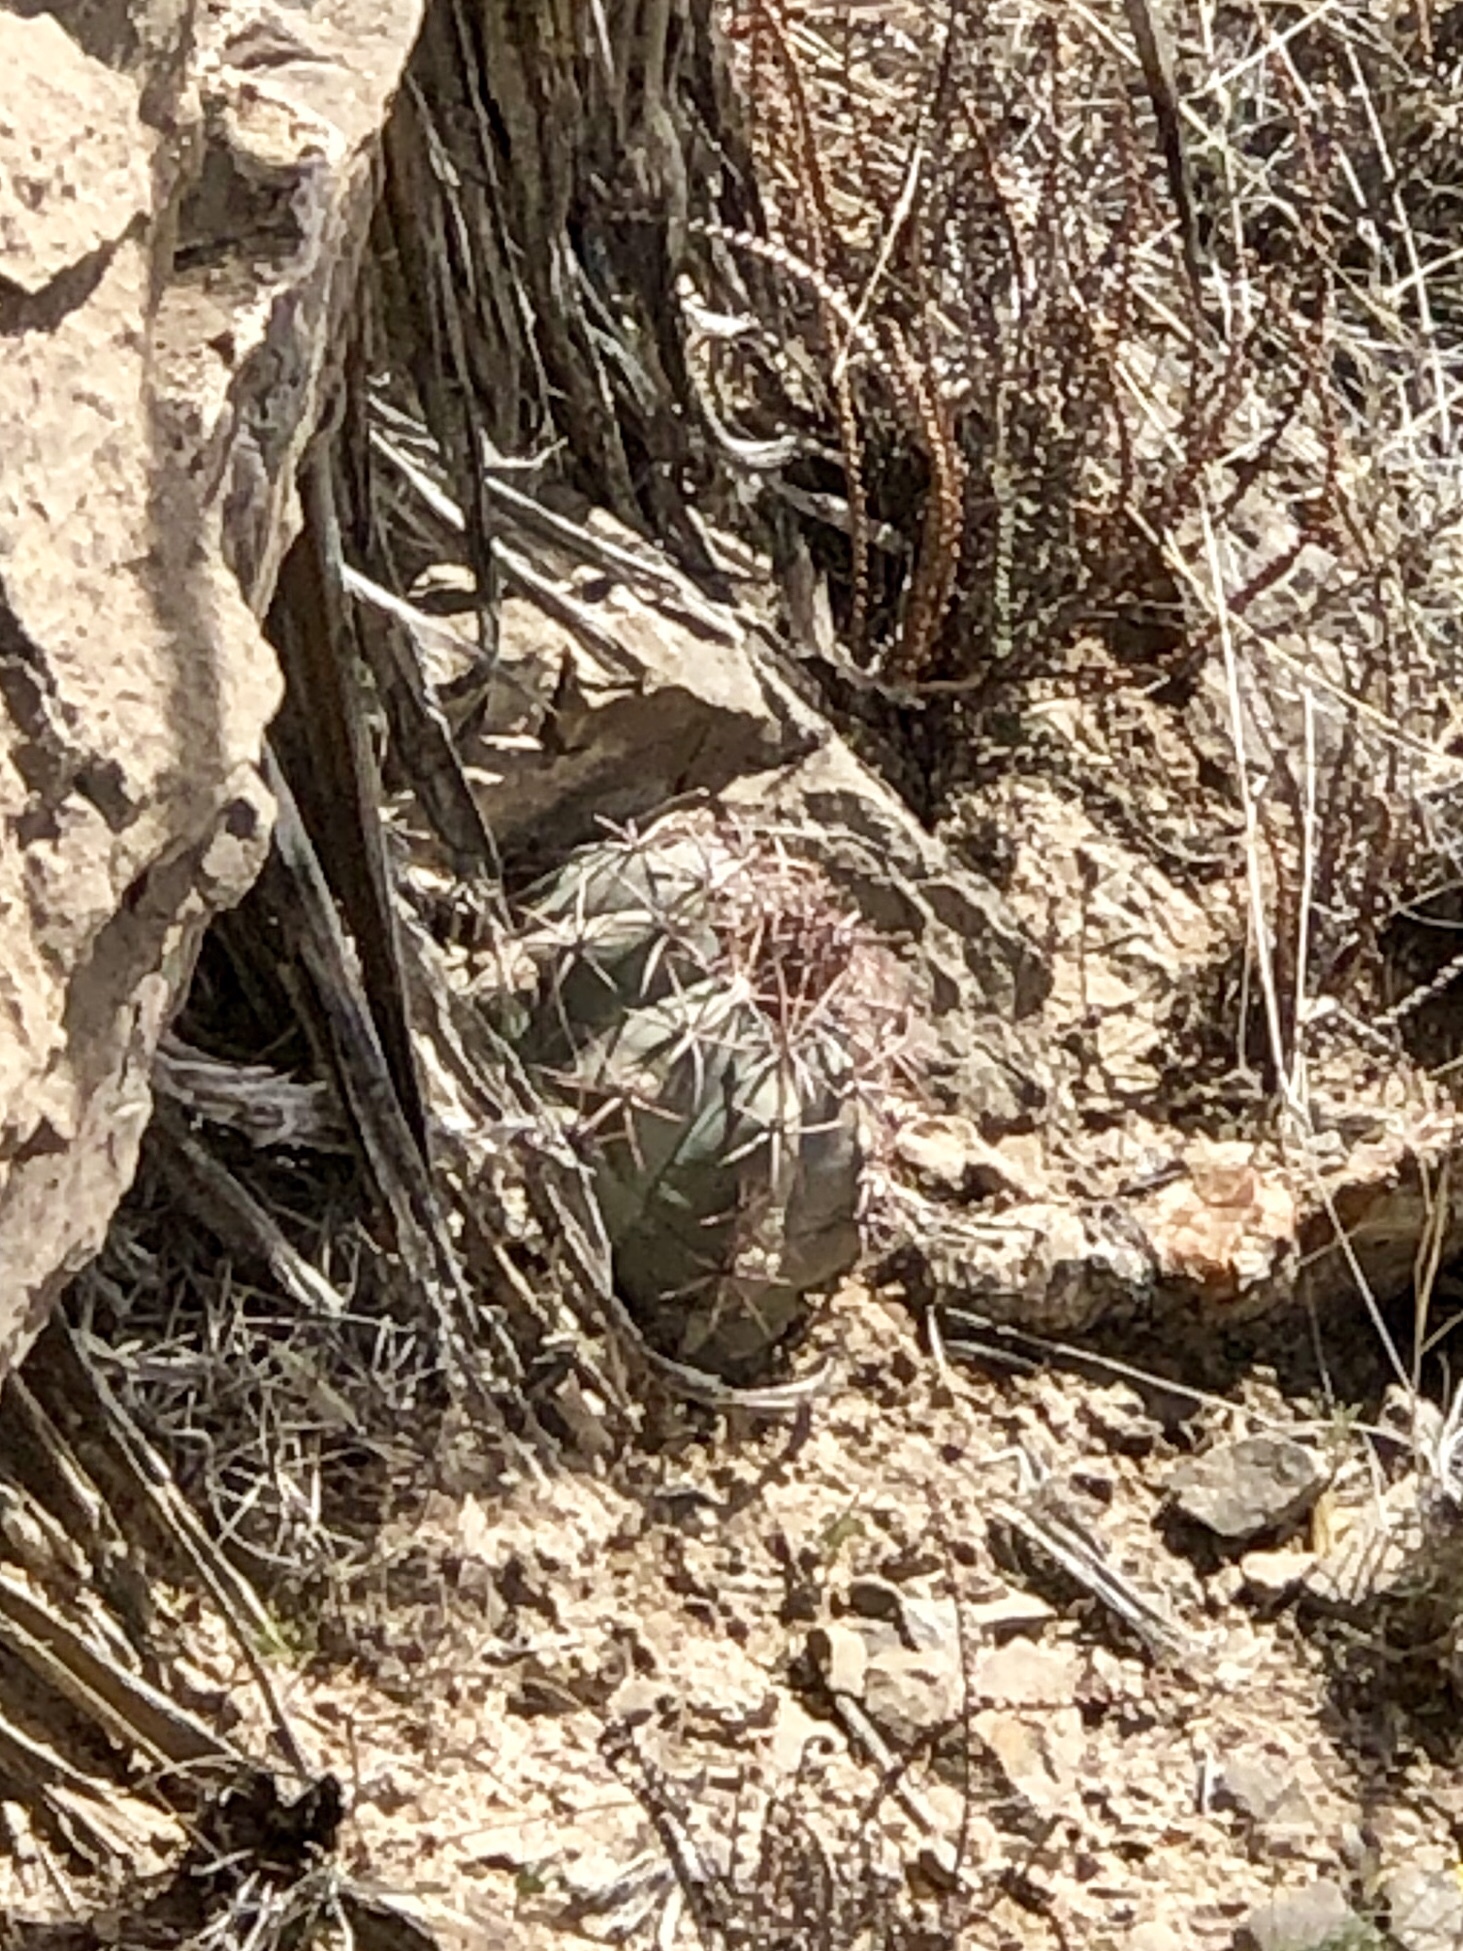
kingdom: Plantae
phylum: Tracheophyta
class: Magnoliopsida
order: Caryophyllales
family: Cactaceae
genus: Echinocactus
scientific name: Echinocactus horizonthalonius
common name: Devilshead
